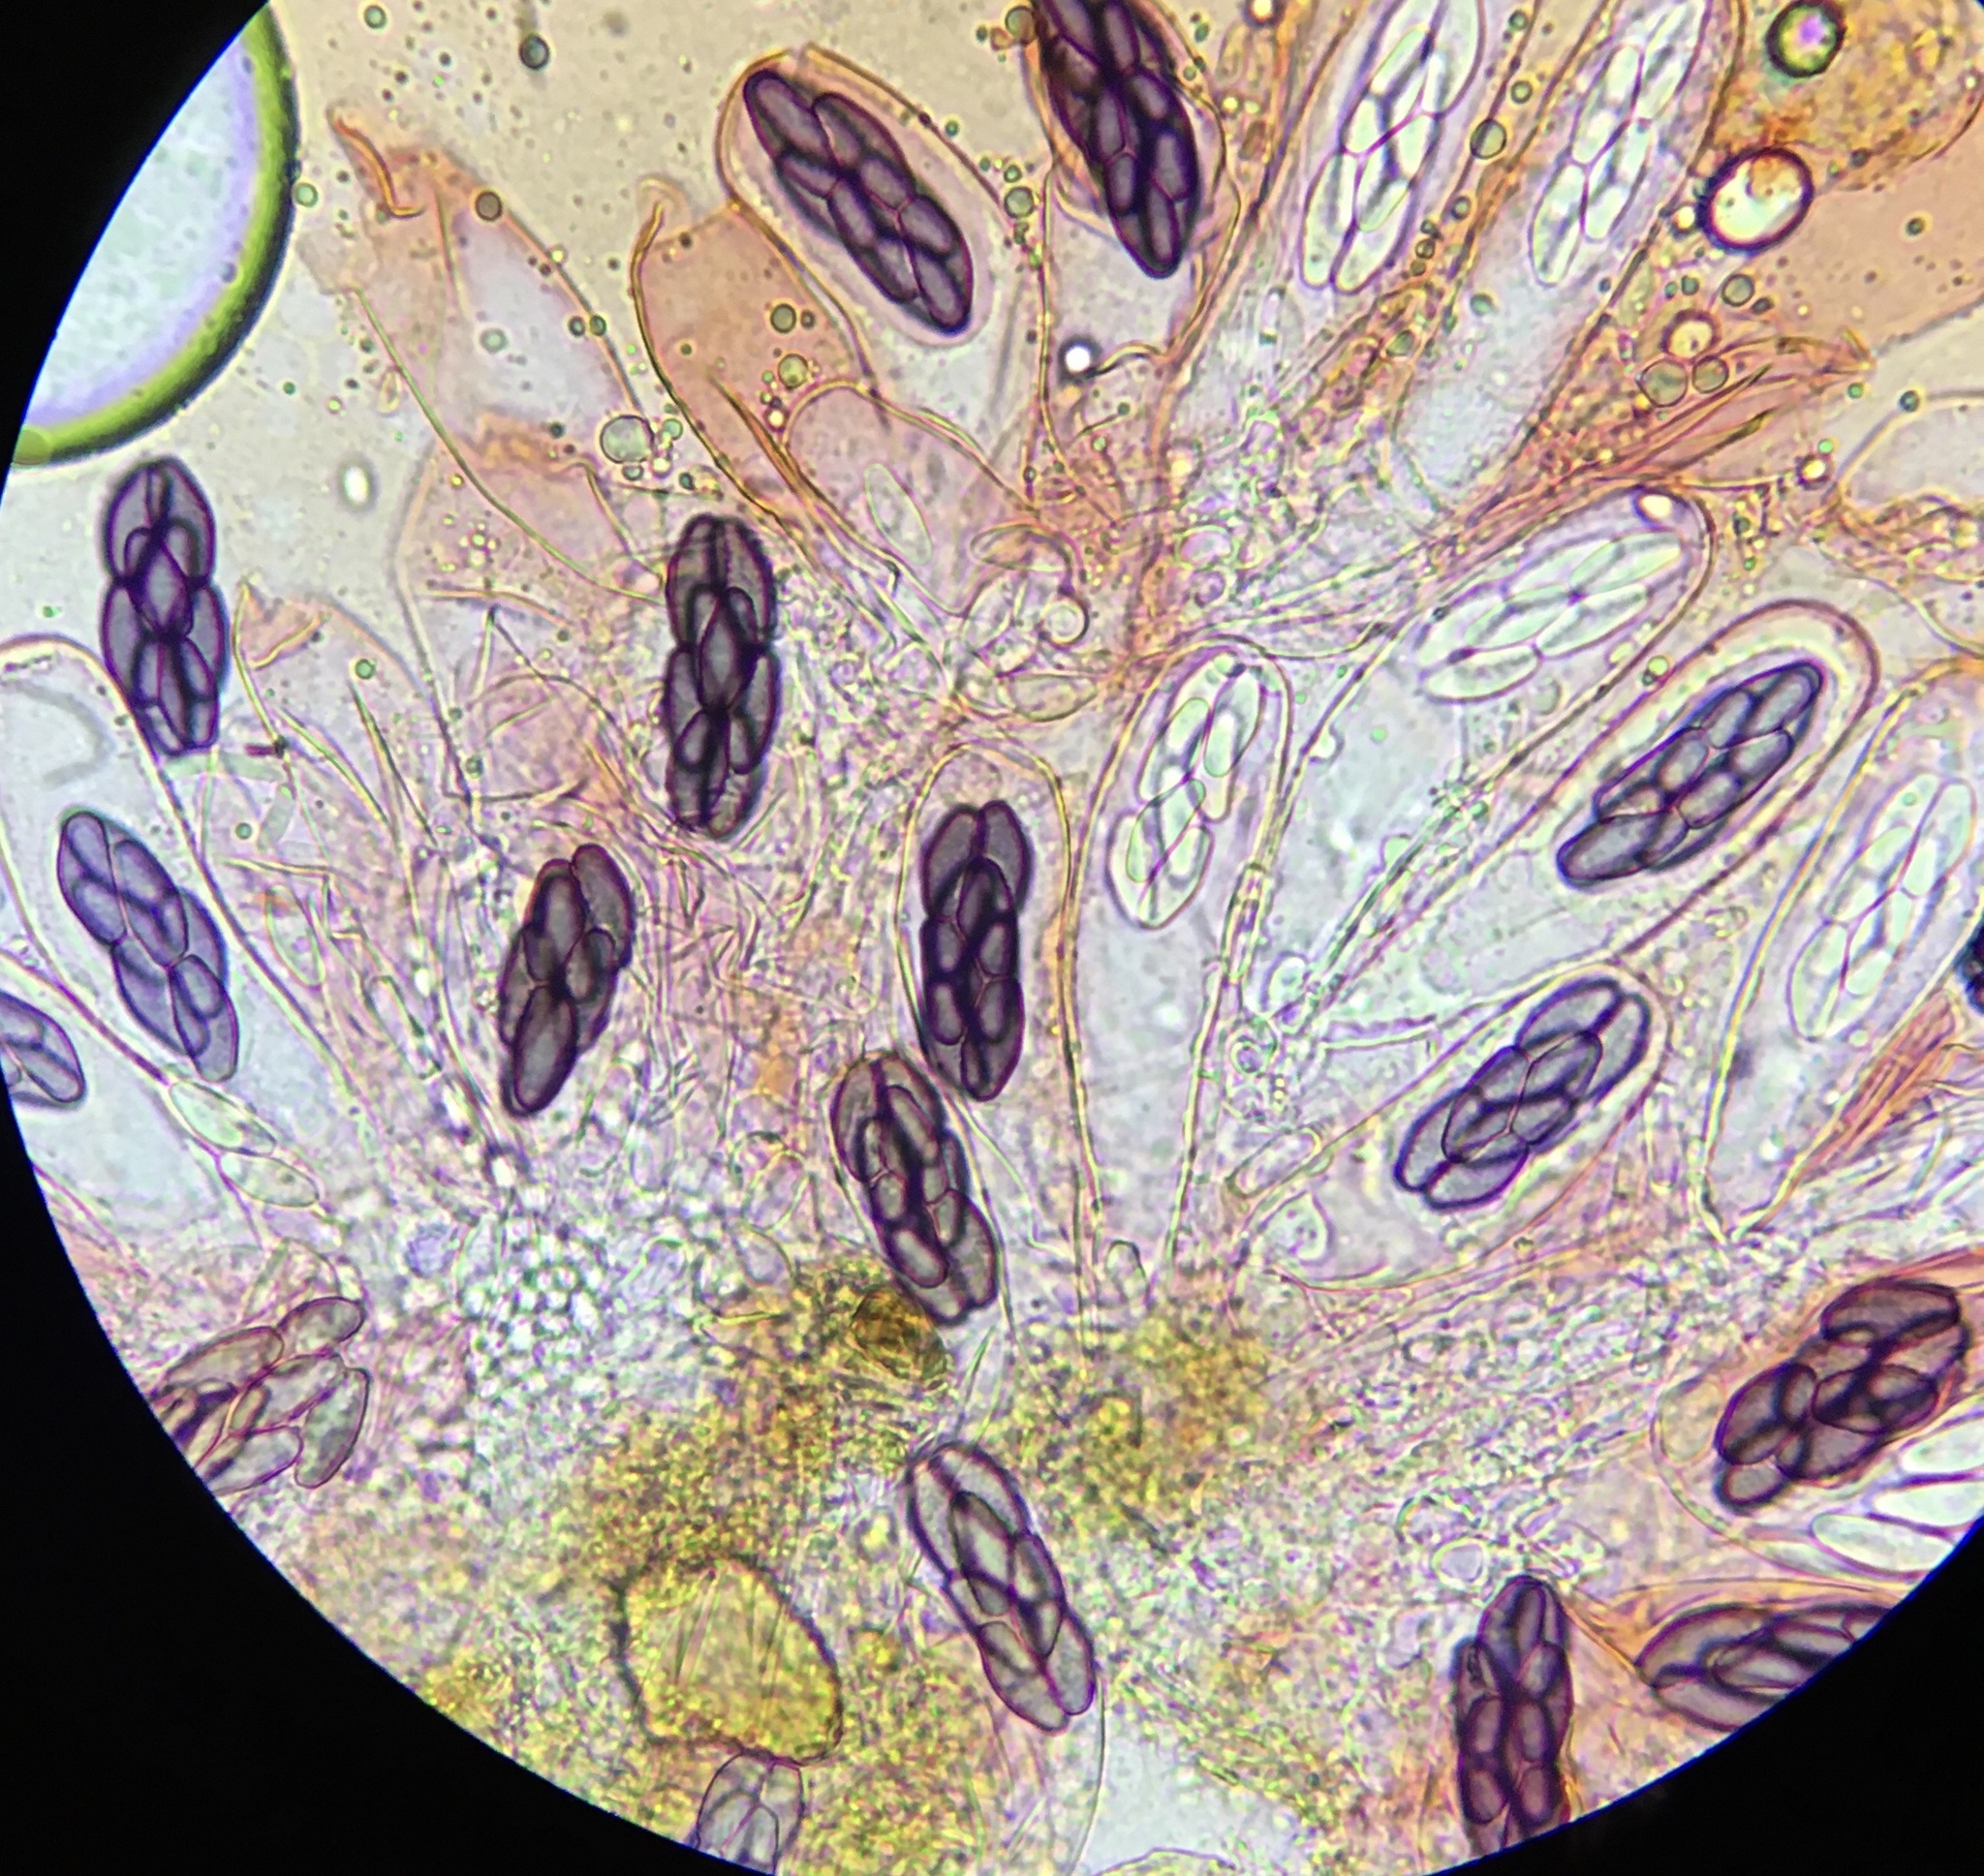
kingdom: Fungi
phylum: Ascomycota
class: Pezizomycetes
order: Pezizales
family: Ascobolaceae
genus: Saccobolus
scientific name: Saccobolus depauperatus
